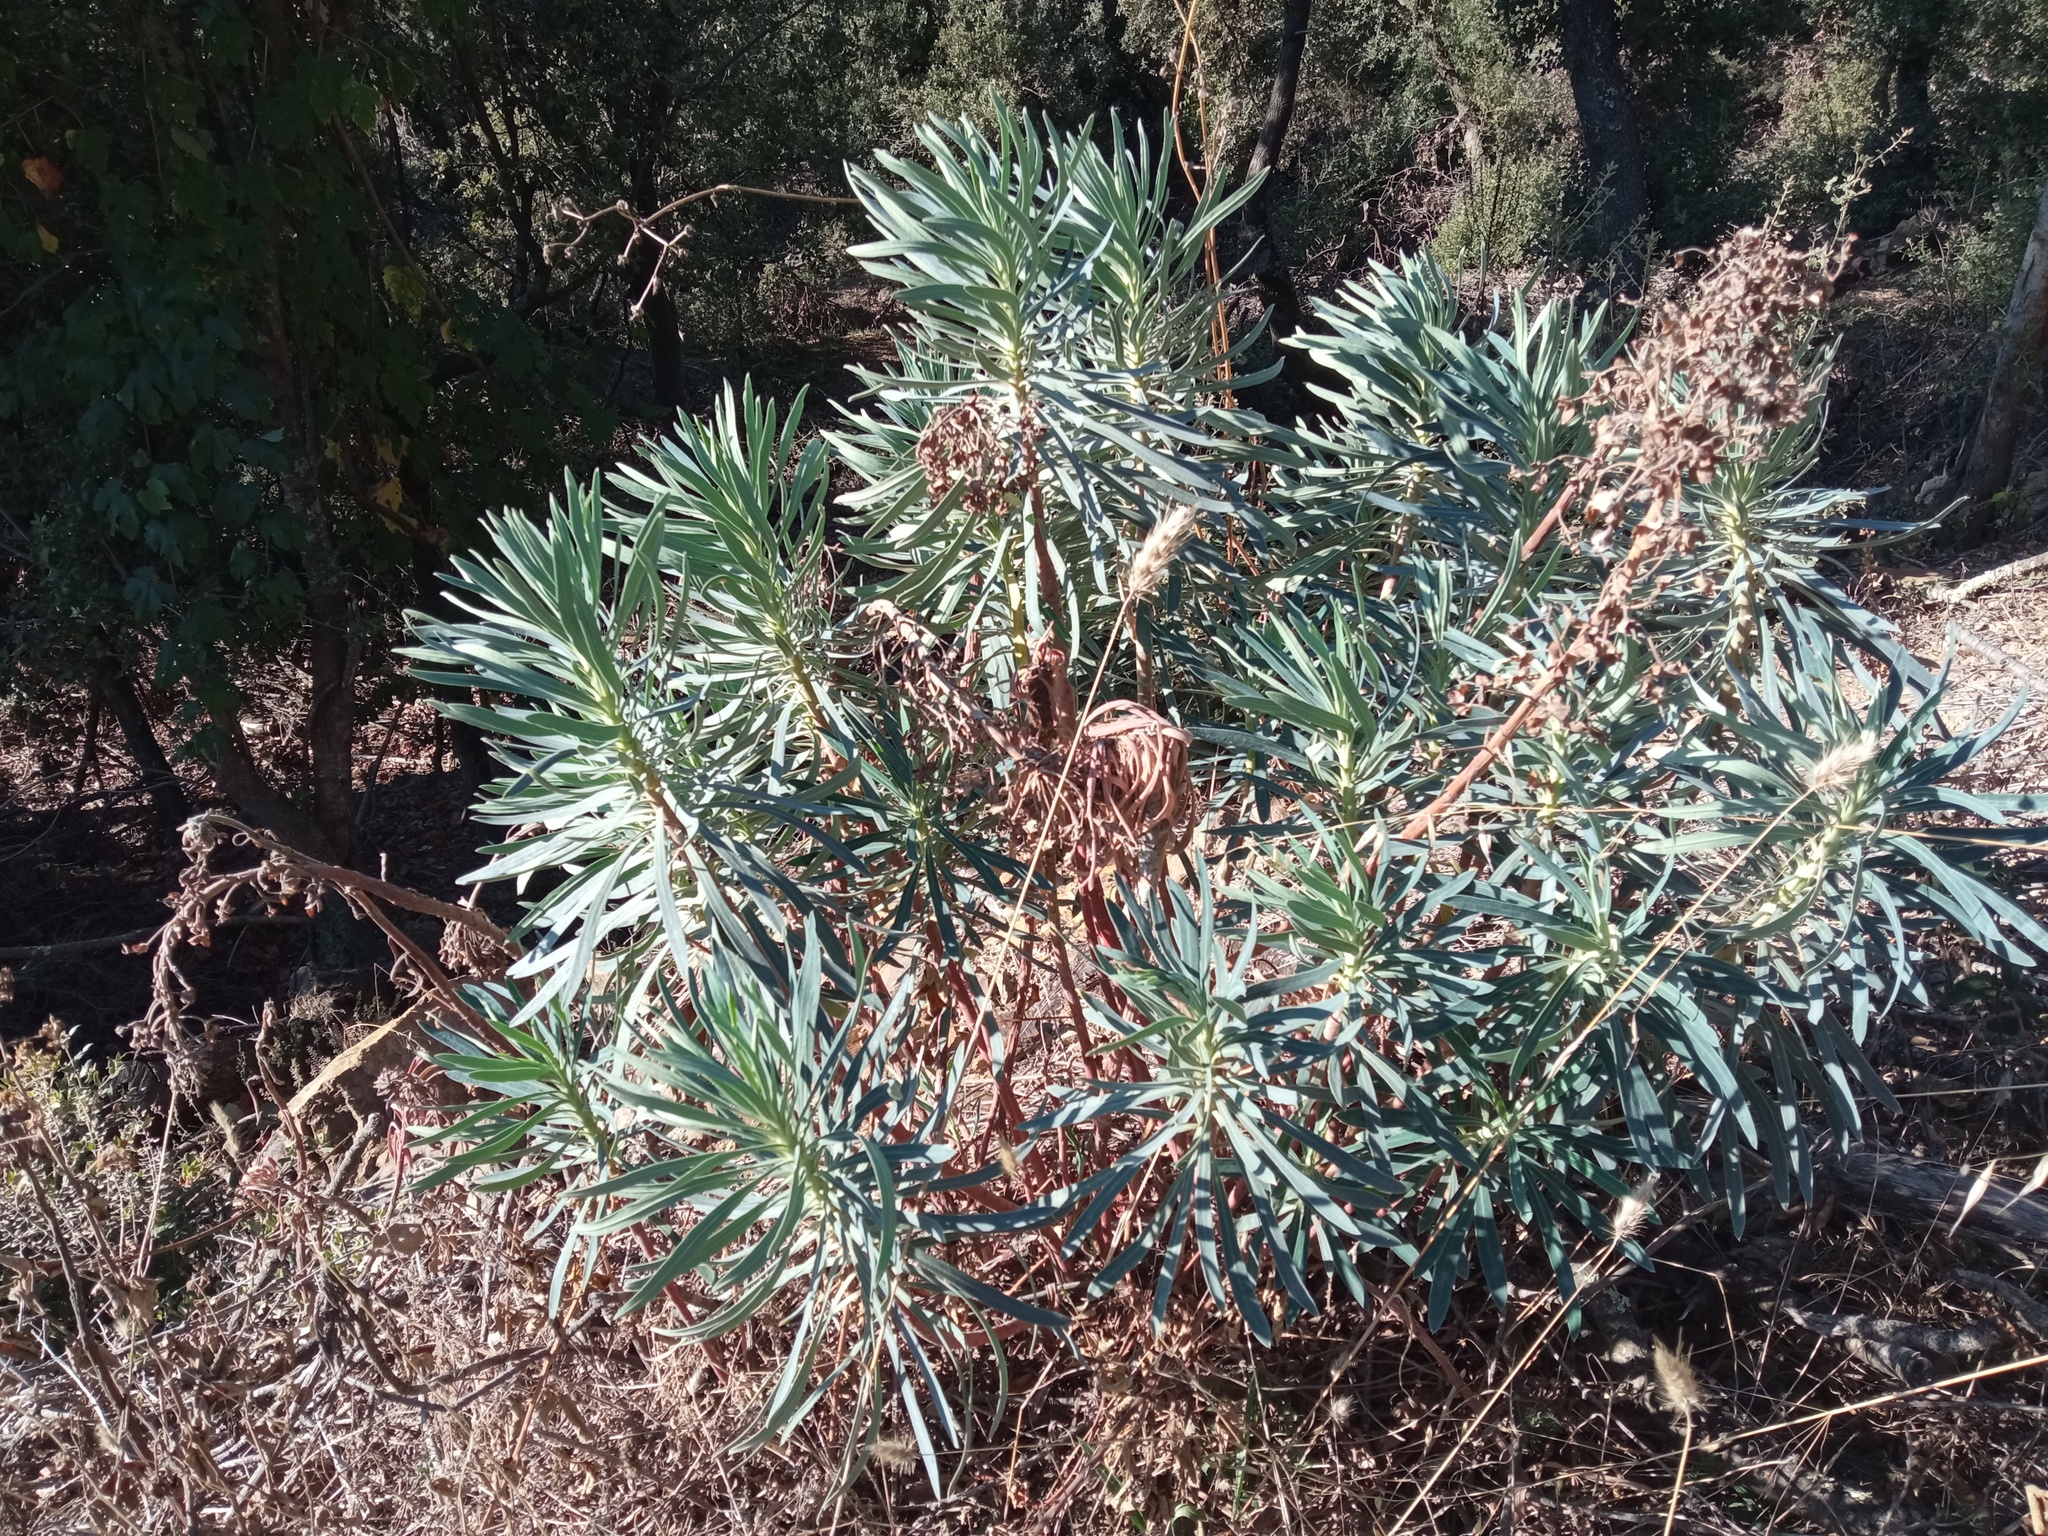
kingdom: Plantae
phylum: Tracheophyta
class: Magnoliopsida
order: Malpighiales
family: Euphorbiaceae
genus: Euphorbia
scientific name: Euphorbia characias
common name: Mediterranean spurge
